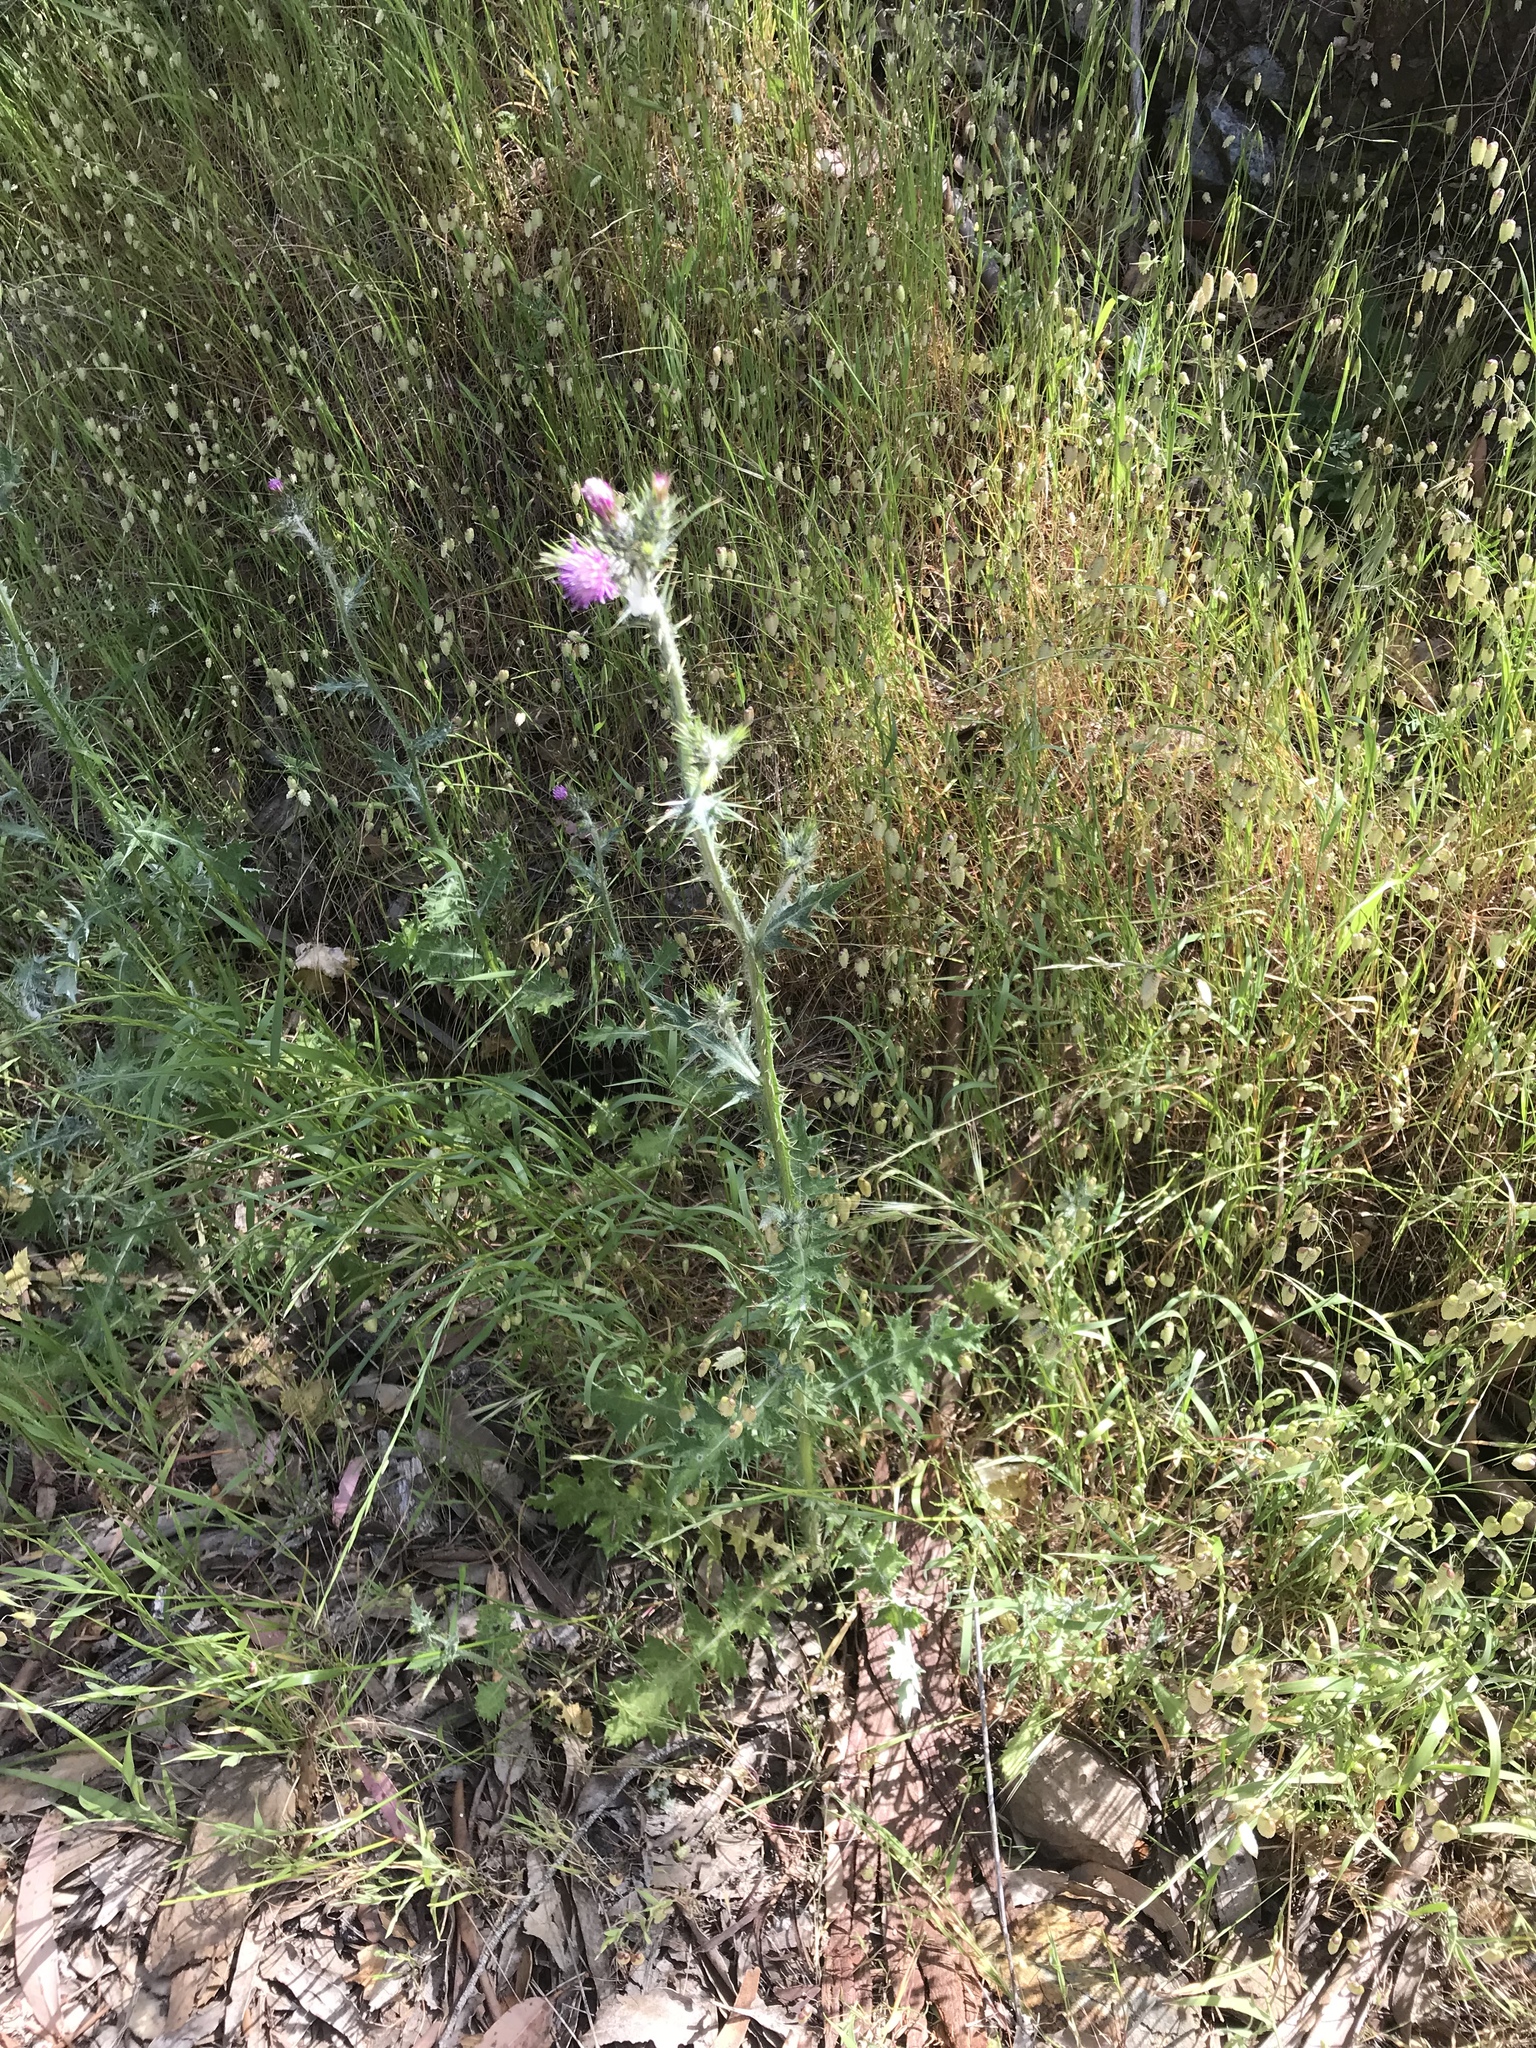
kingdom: Plantae
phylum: Tracheophyta
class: Magnoliopsida
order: Asterales
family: Asteraceae
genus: Carduus
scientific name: Carduus pycnocephalus
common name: Plymouth thistle
